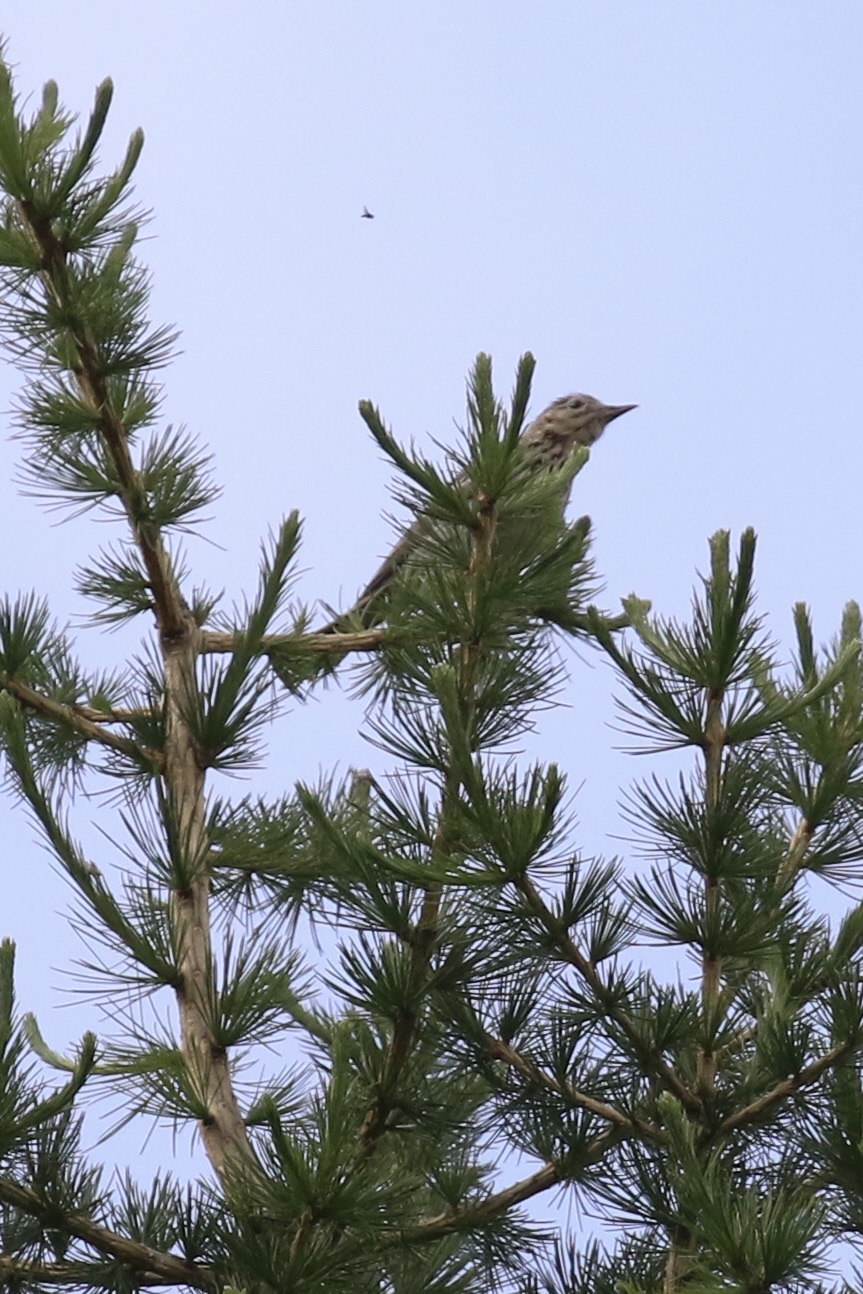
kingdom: Animalia
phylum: Chordata
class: Aves
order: Passeriformes
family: Motacillidae
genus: Anthus
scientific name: Anthus trivialis
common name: Tree pipit
